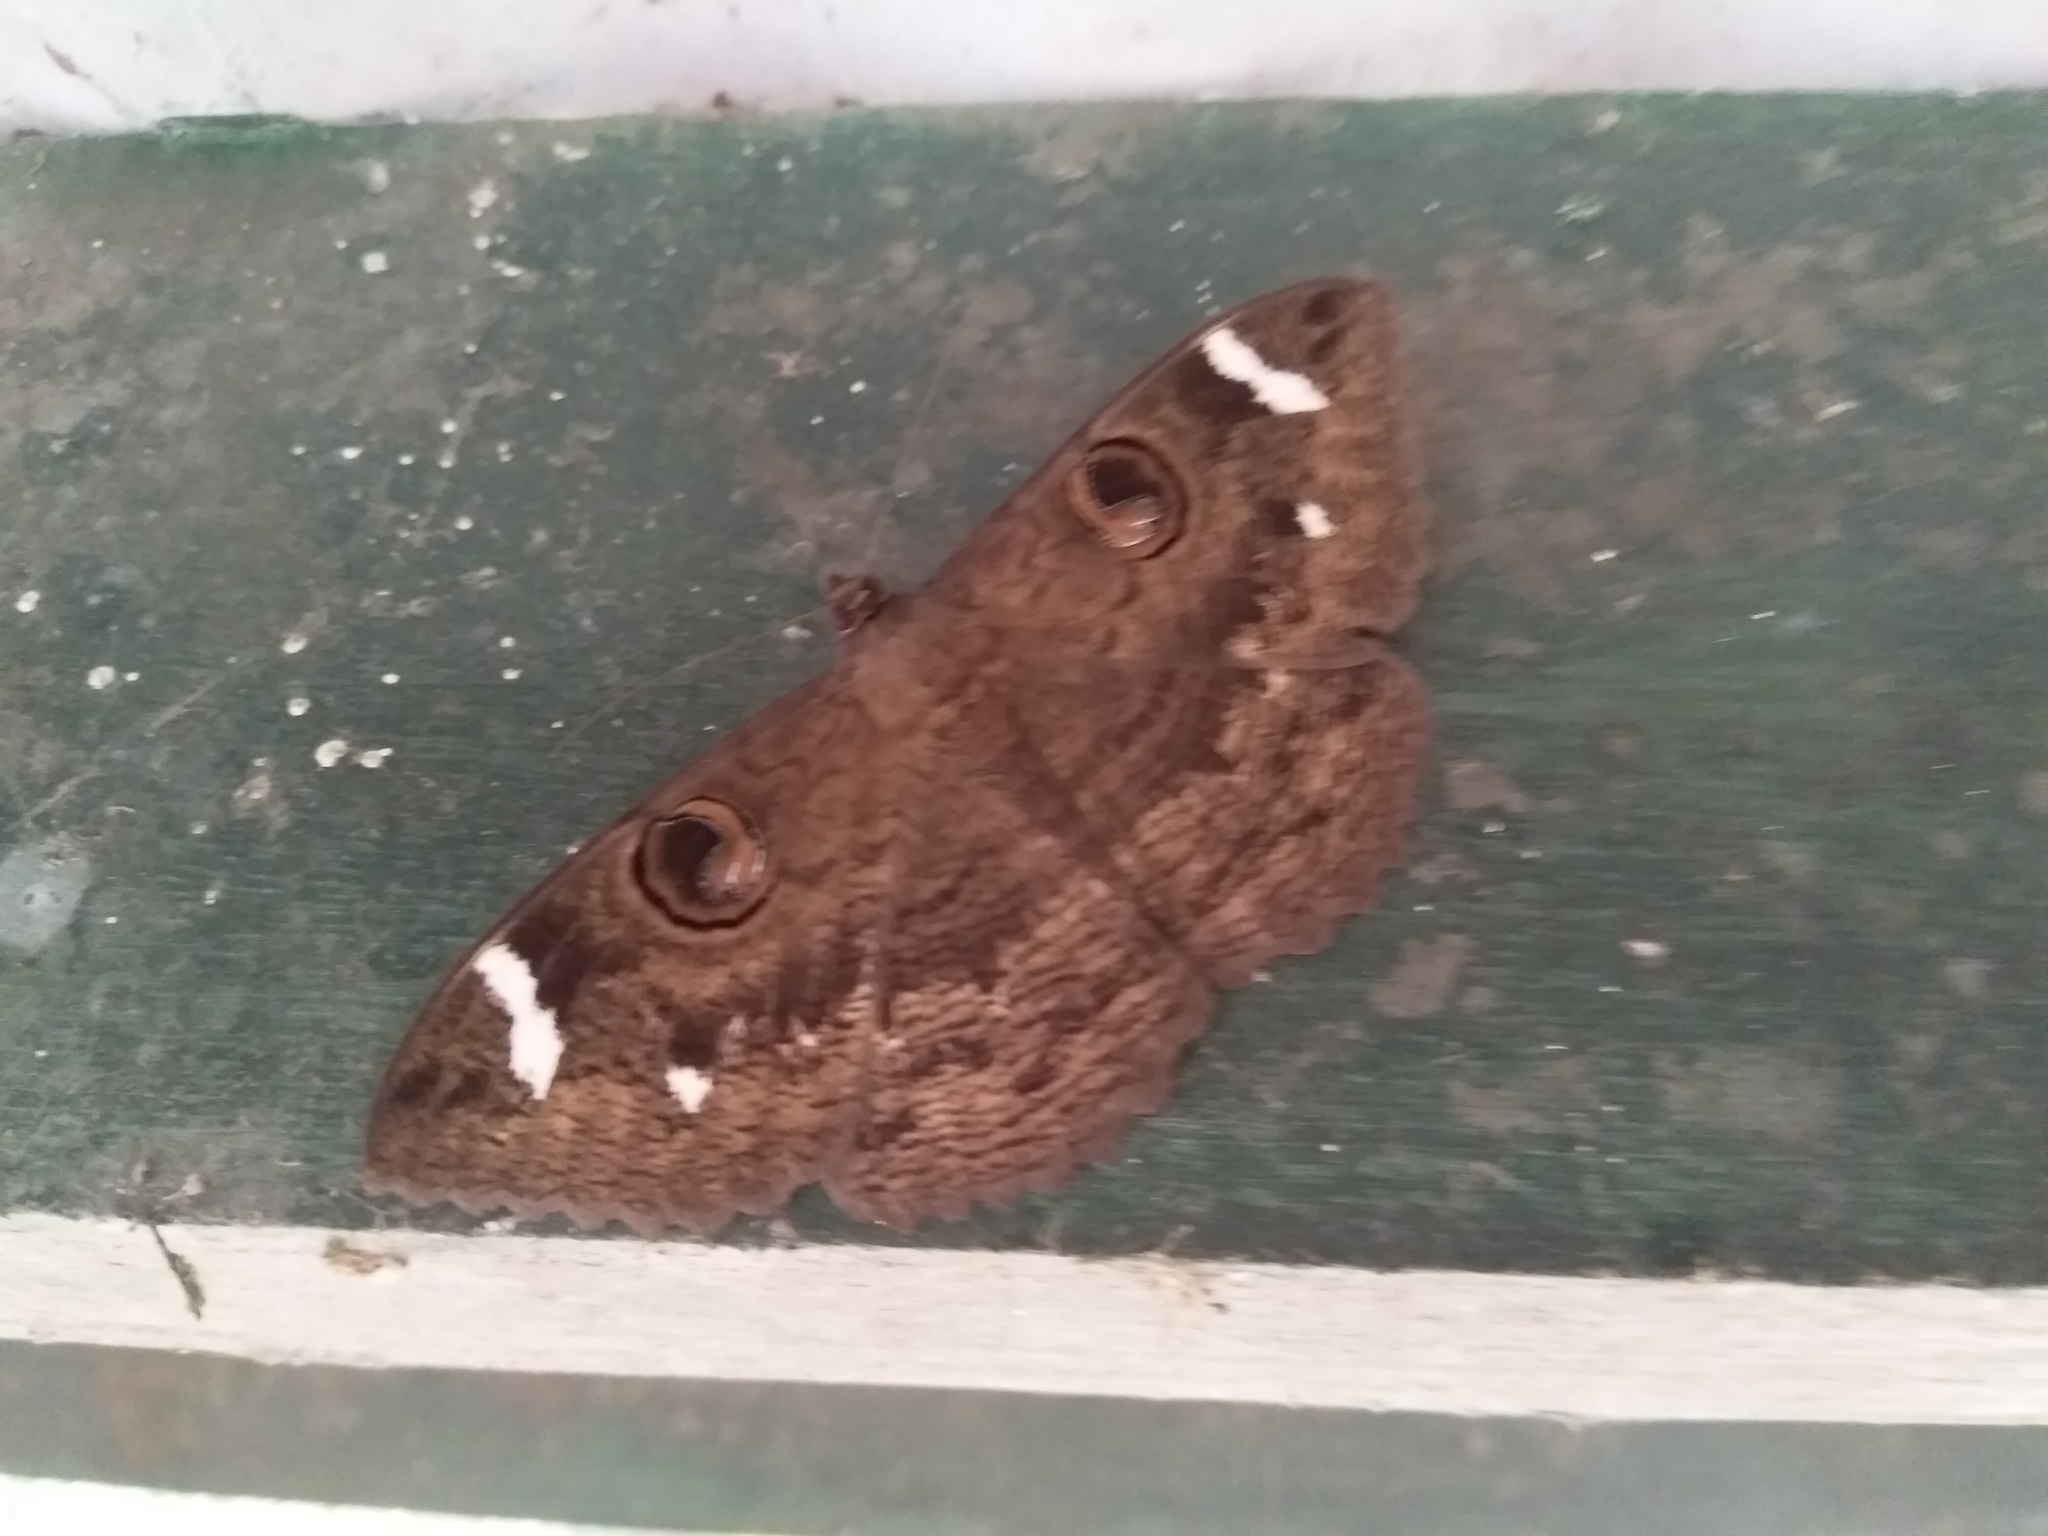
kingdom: Animalia
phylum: Arthropoda
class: Insecta
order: Lepidoptera
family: Erebidae
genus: Erebus
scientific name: Erebus hieroglyphica
